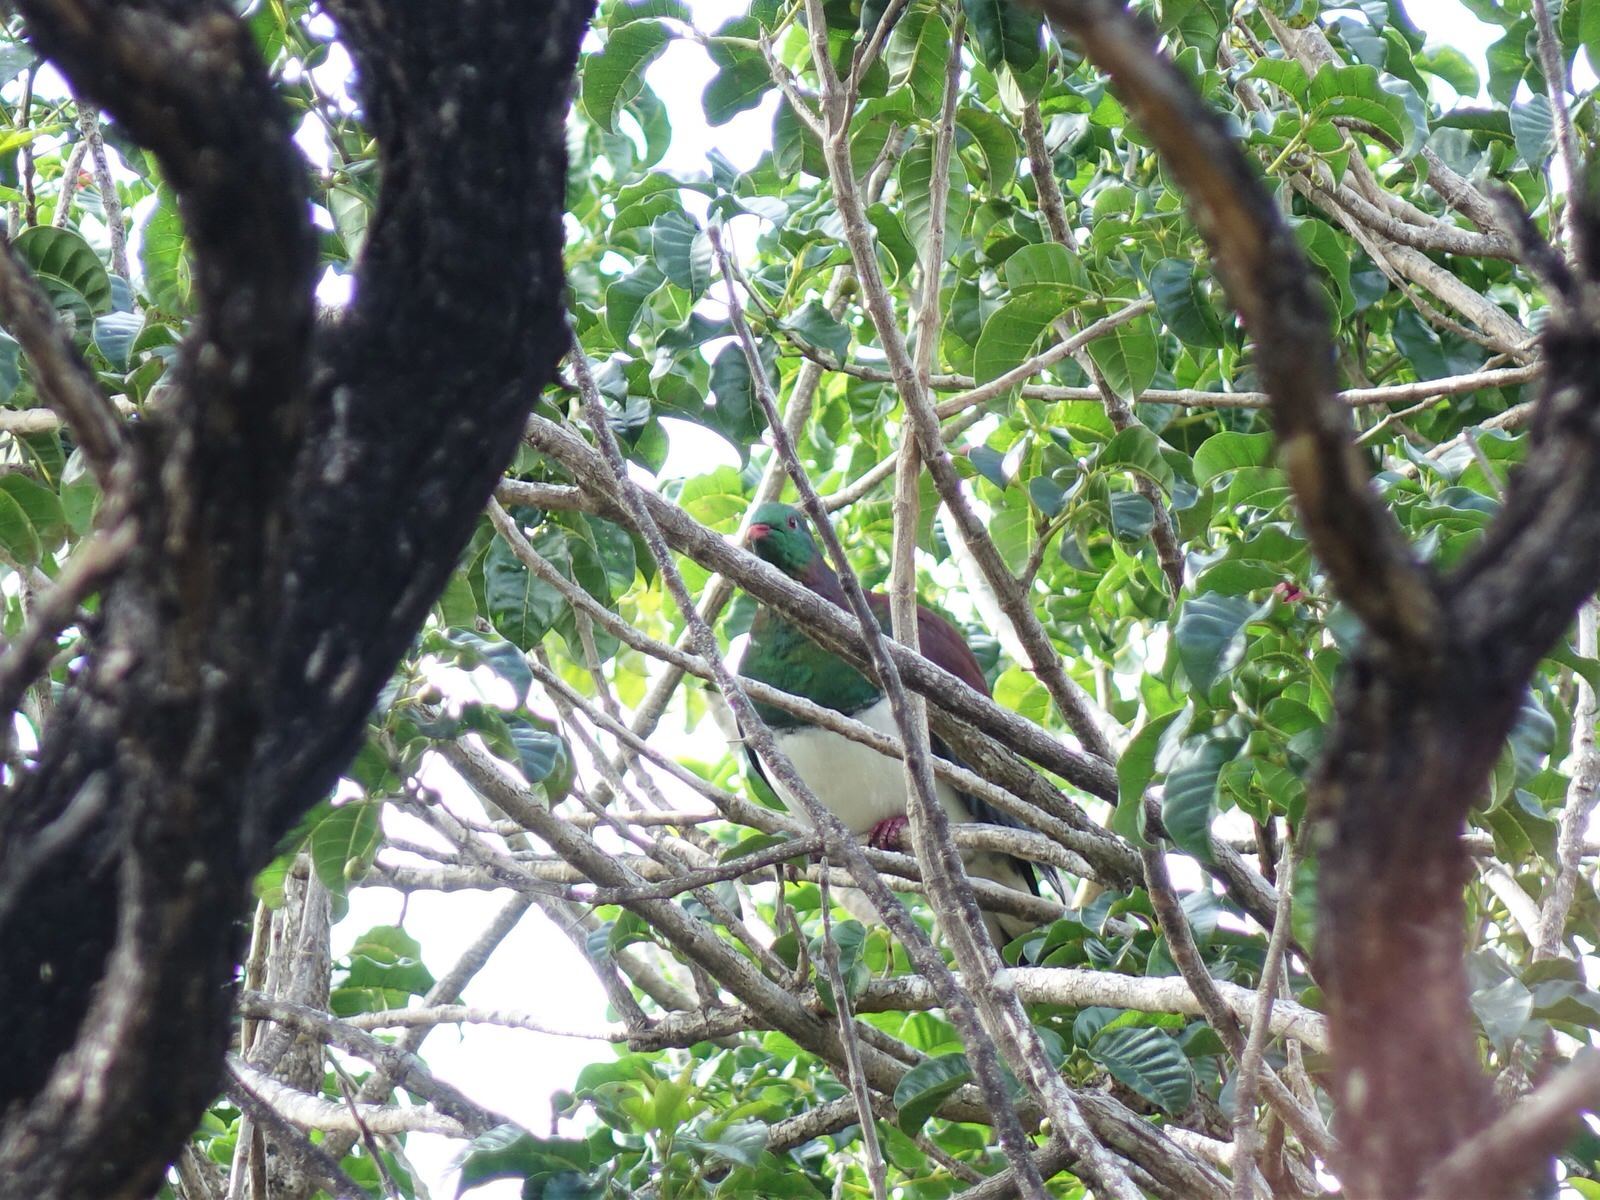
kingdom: Animalia
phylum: Chordata
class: Aves
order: Columbiformes
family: Columbidae
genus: Hemiphaga
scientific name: Hemiphaga novaeseelandiae
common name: New zealand pigeon
